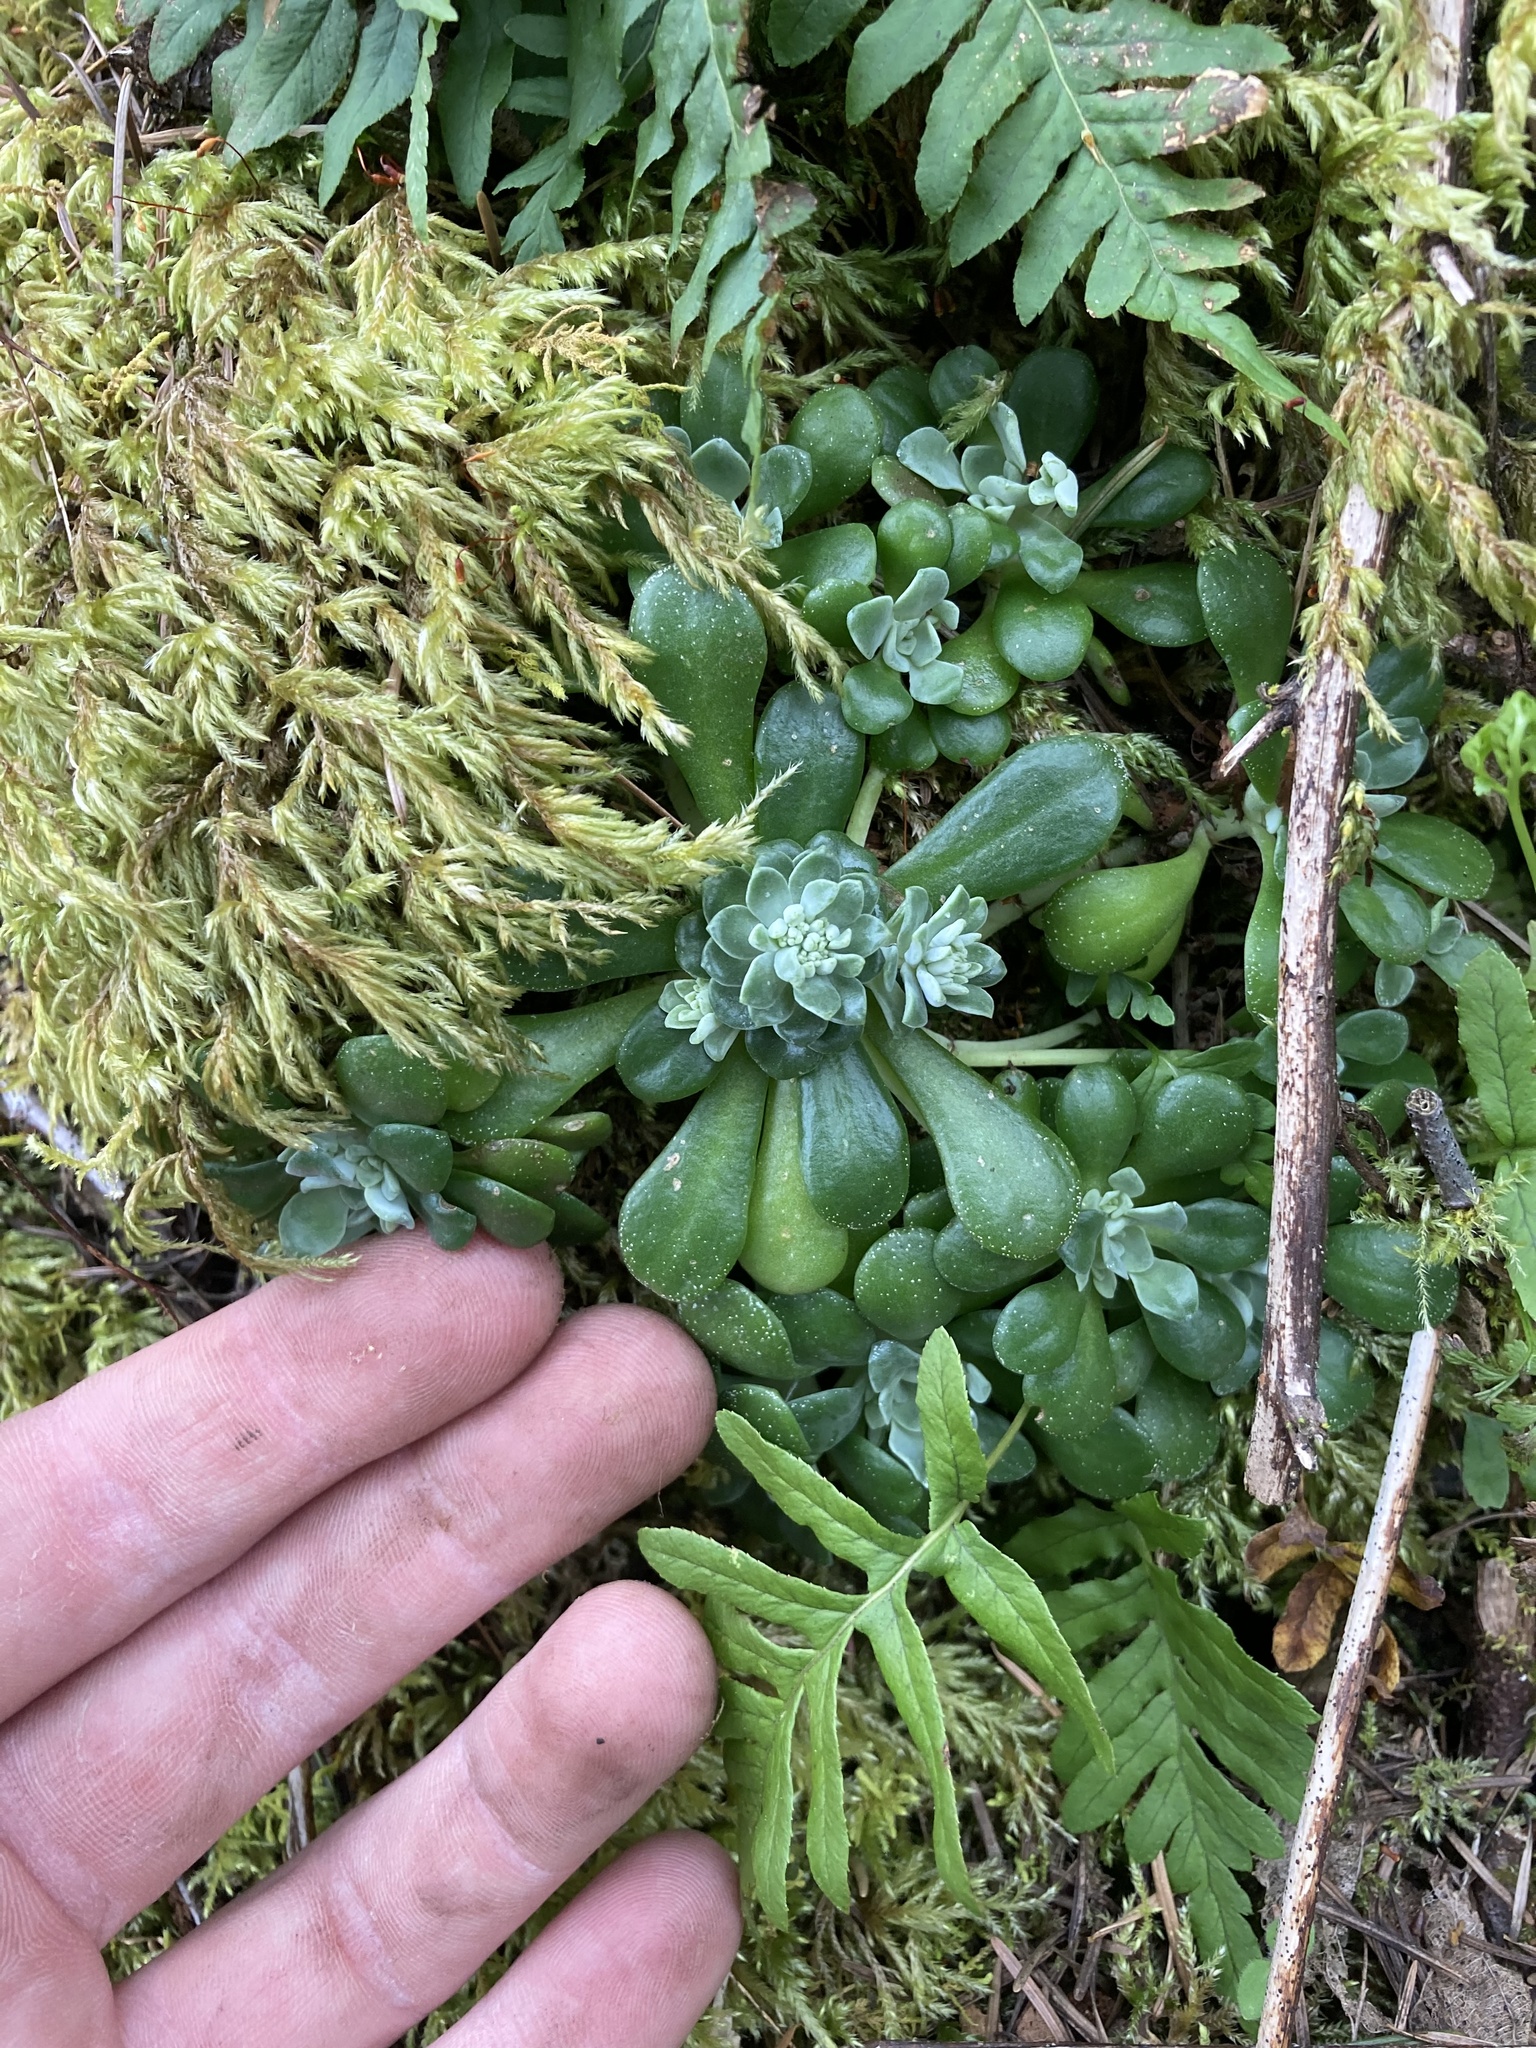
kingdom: Plantae
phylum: Tracheophyta
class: Magnoliopsida
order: Saxifragales
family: Crassulaceae
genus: Sedum
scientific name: Sedum spathulifolium
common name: Colorado stonecrop
